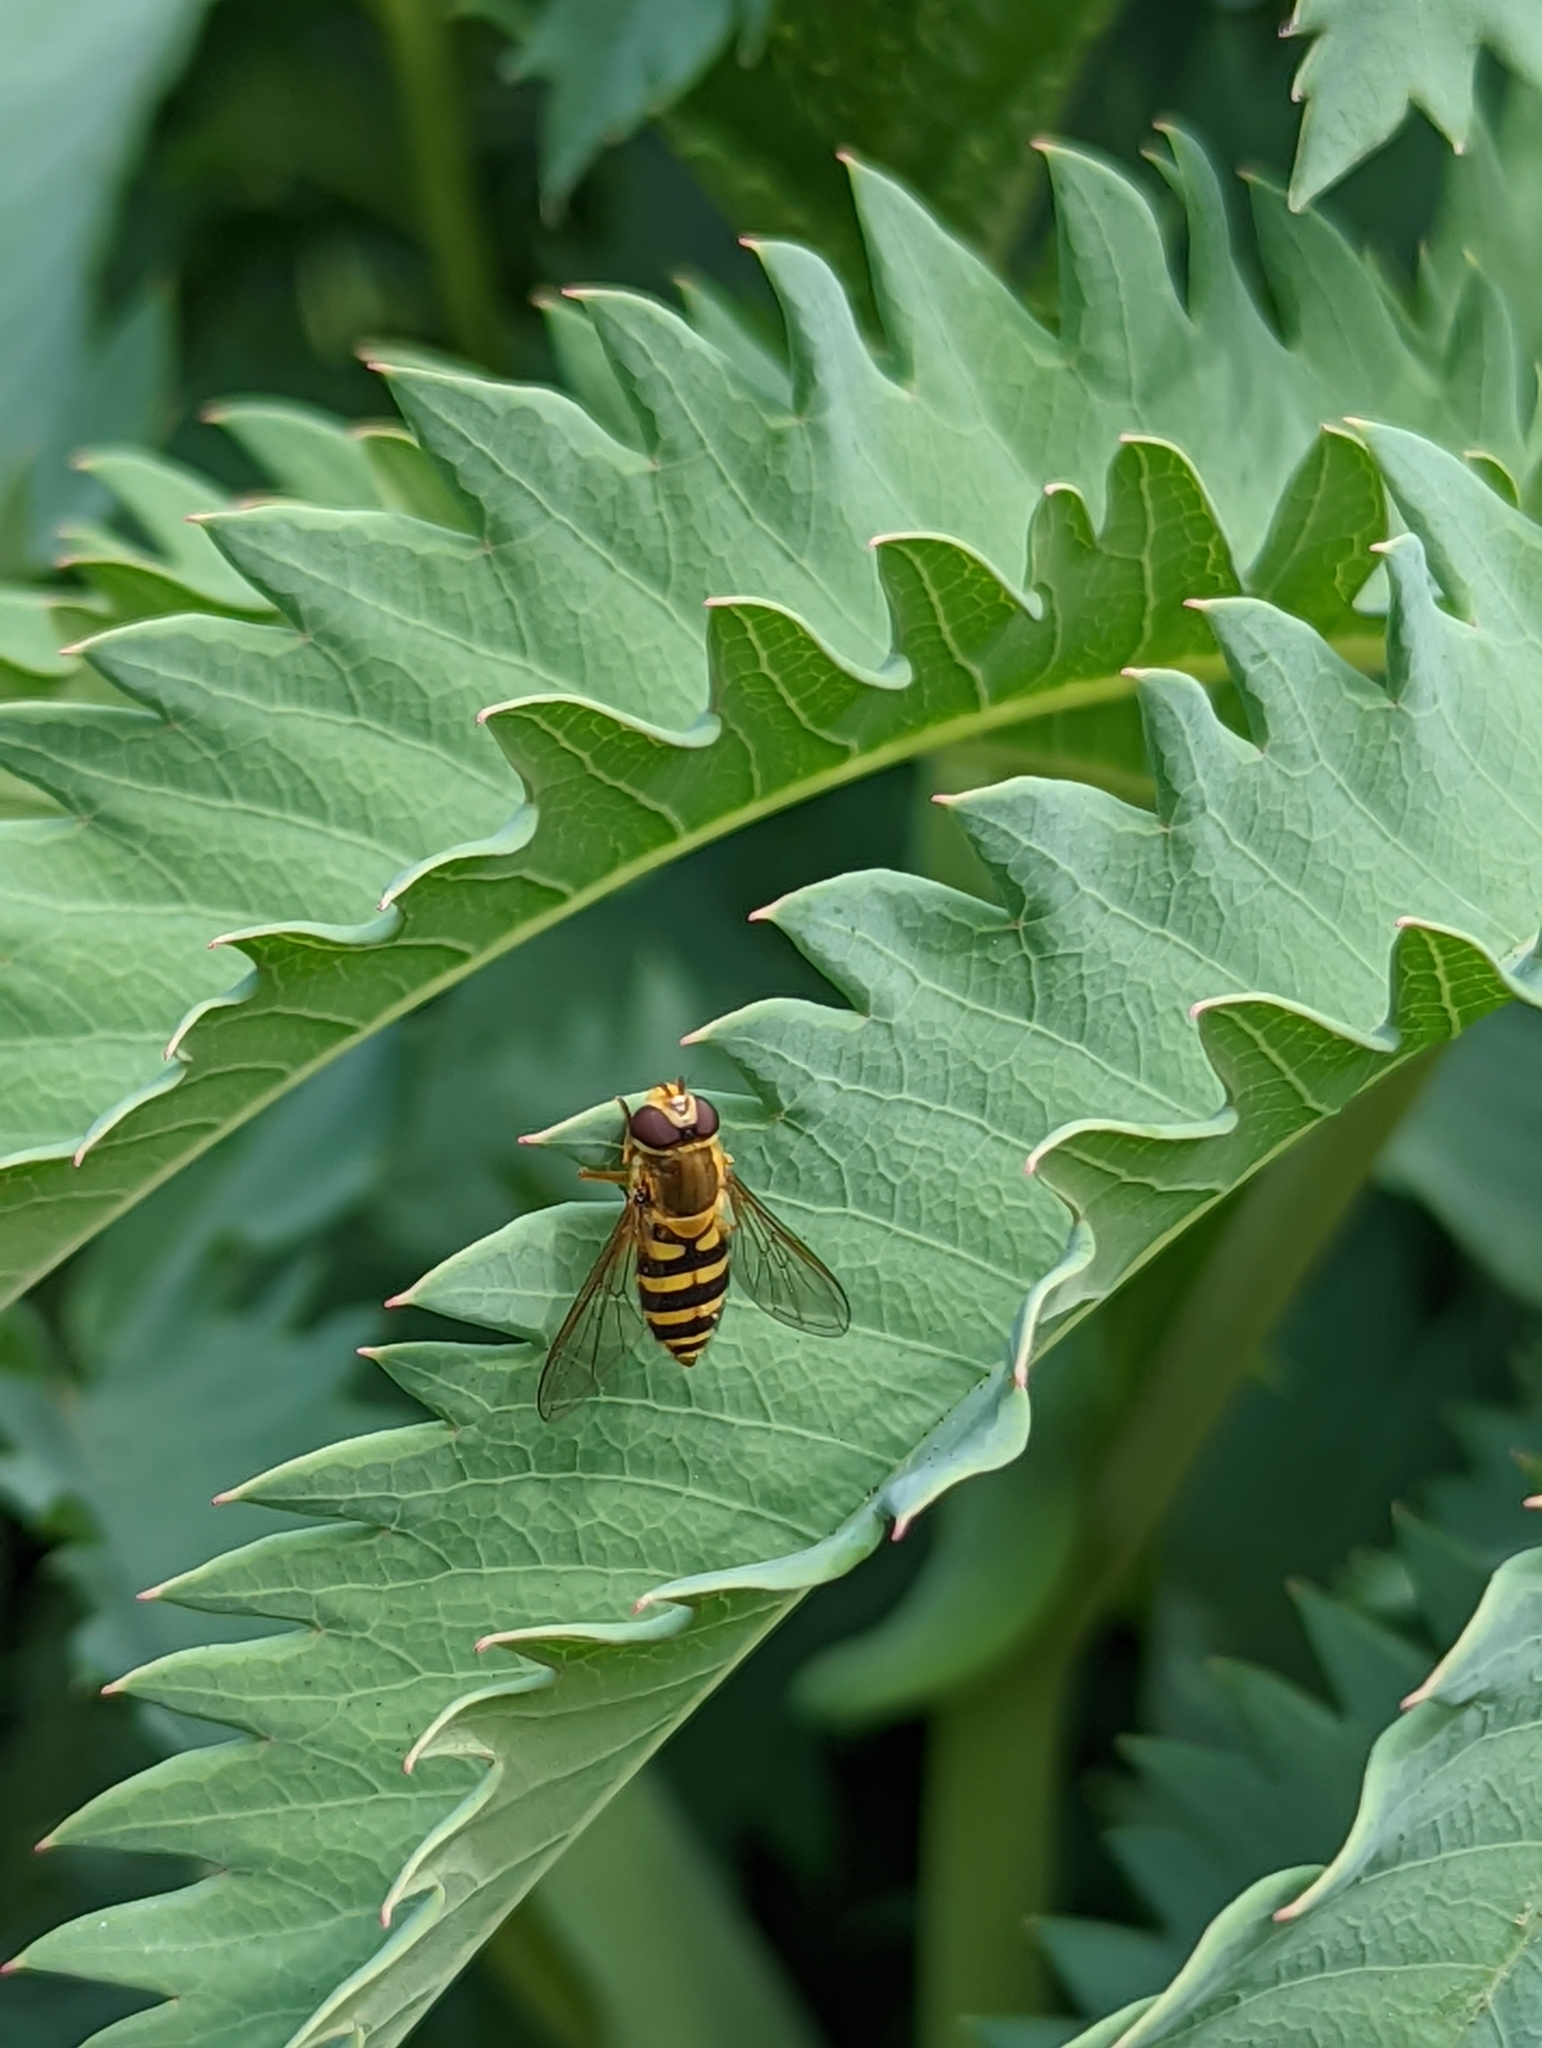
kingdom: Animalia
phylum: Arthropoda
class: Insecta
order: Diptera
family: Syrphidae
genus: Syrphus
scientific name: Syrphus
